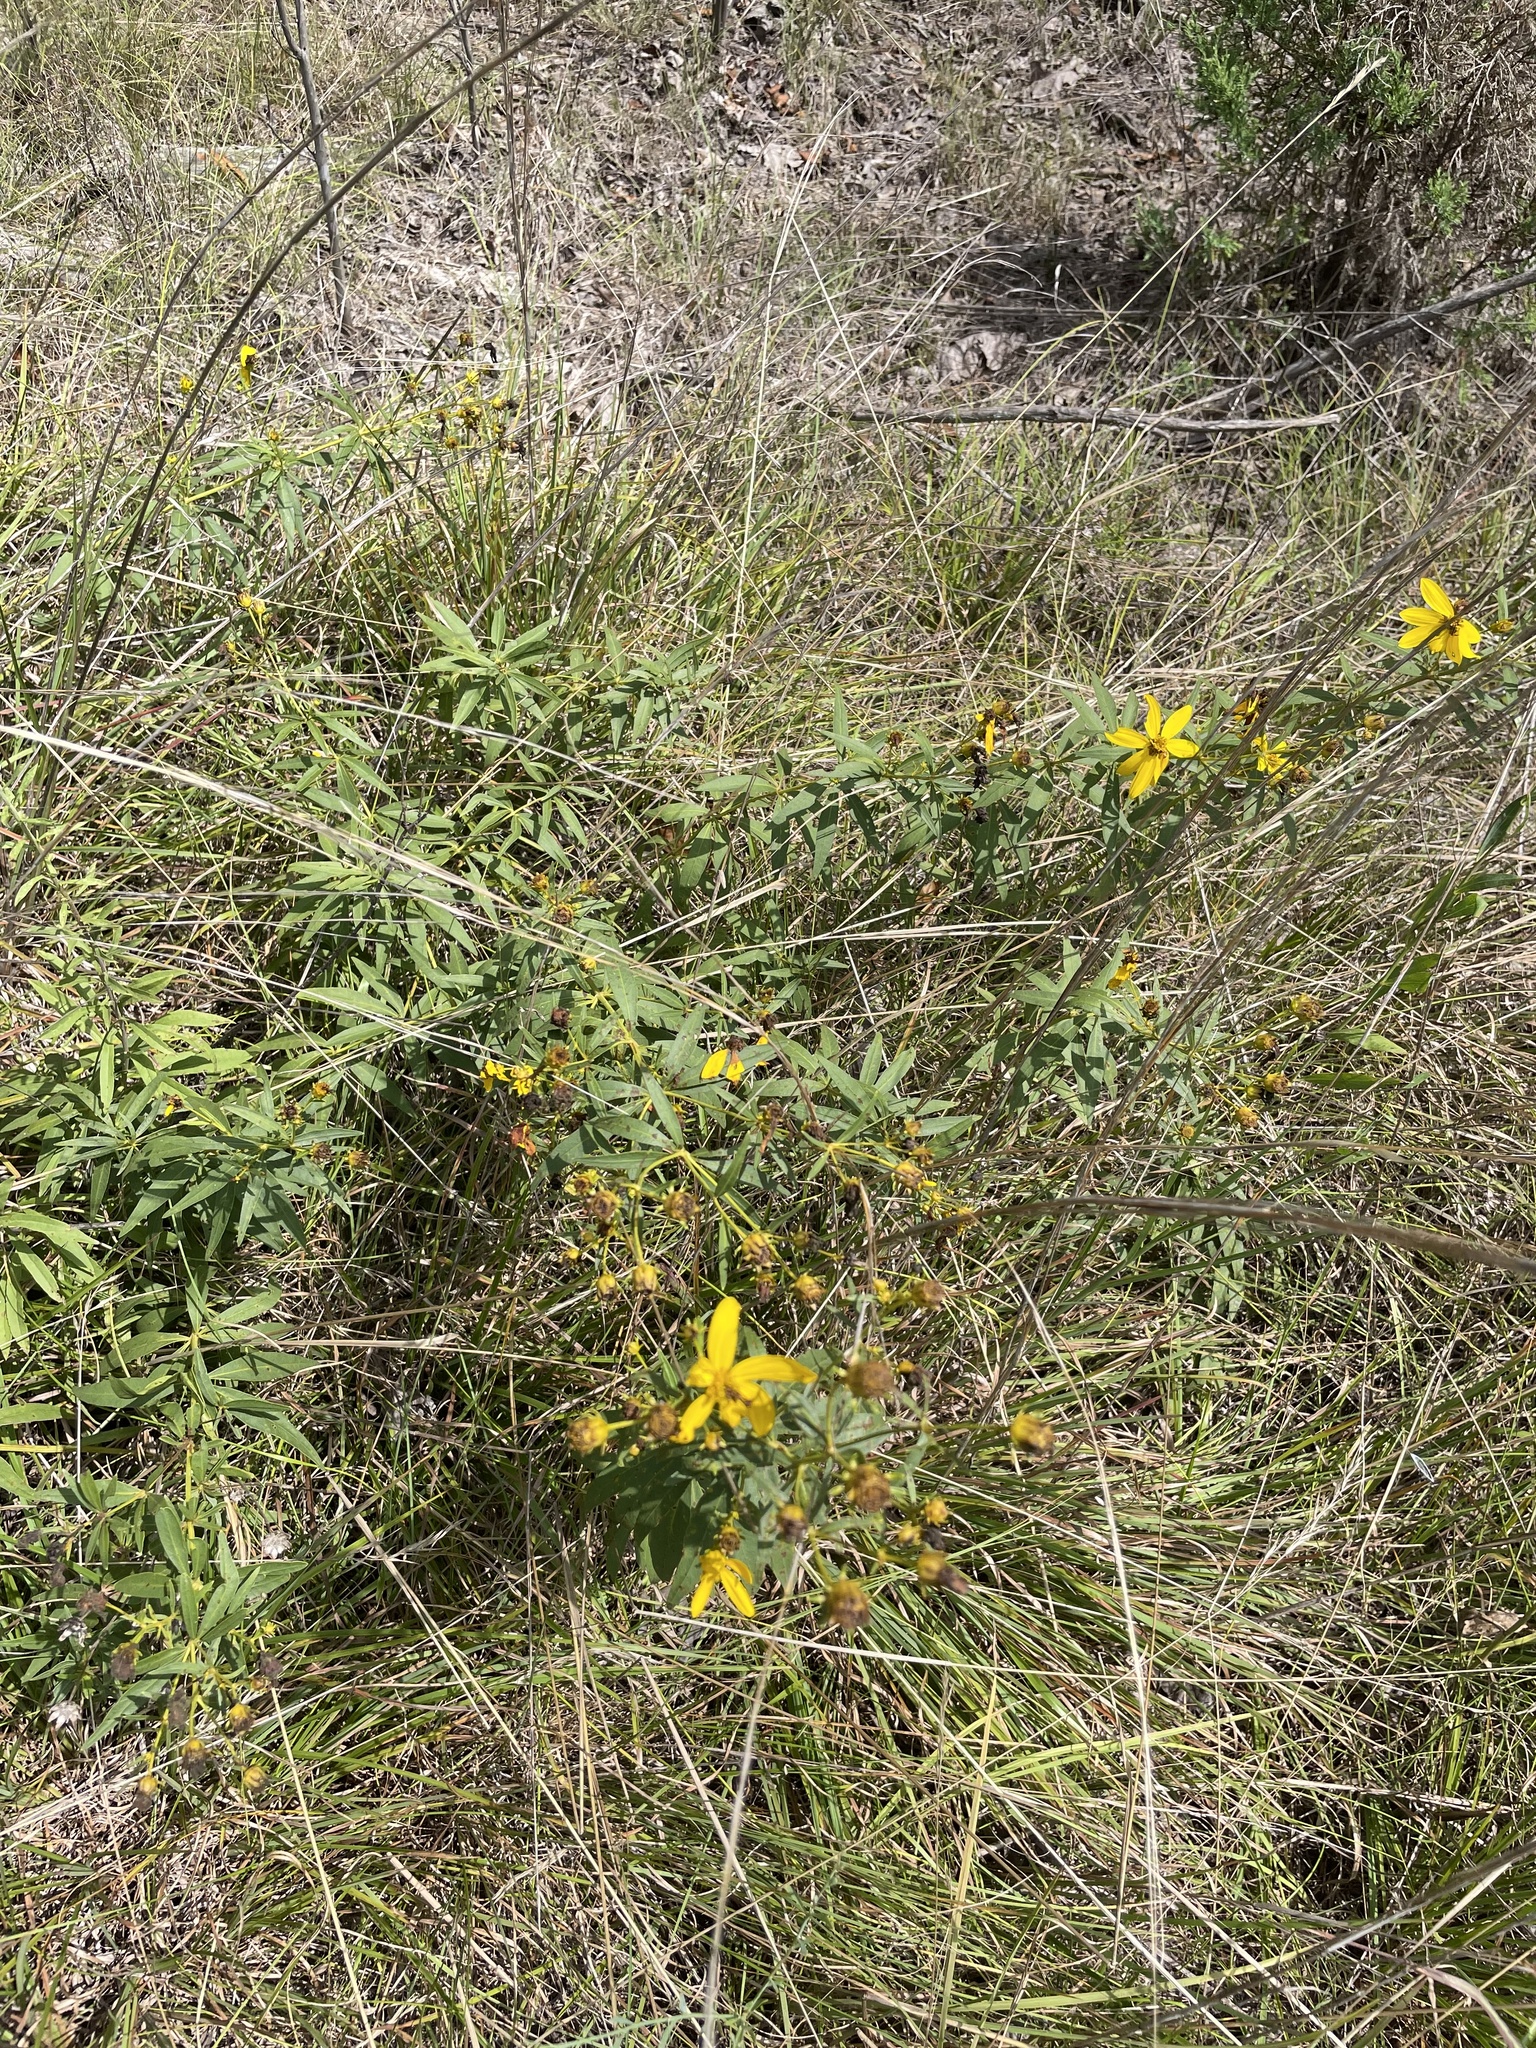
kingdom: Plantae
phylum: Tracheophyta
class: Magnoliopsida
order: Asterales
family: Asteraceae
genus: Coreopsis
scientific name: Coreopsis major
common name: Forest tickseed
